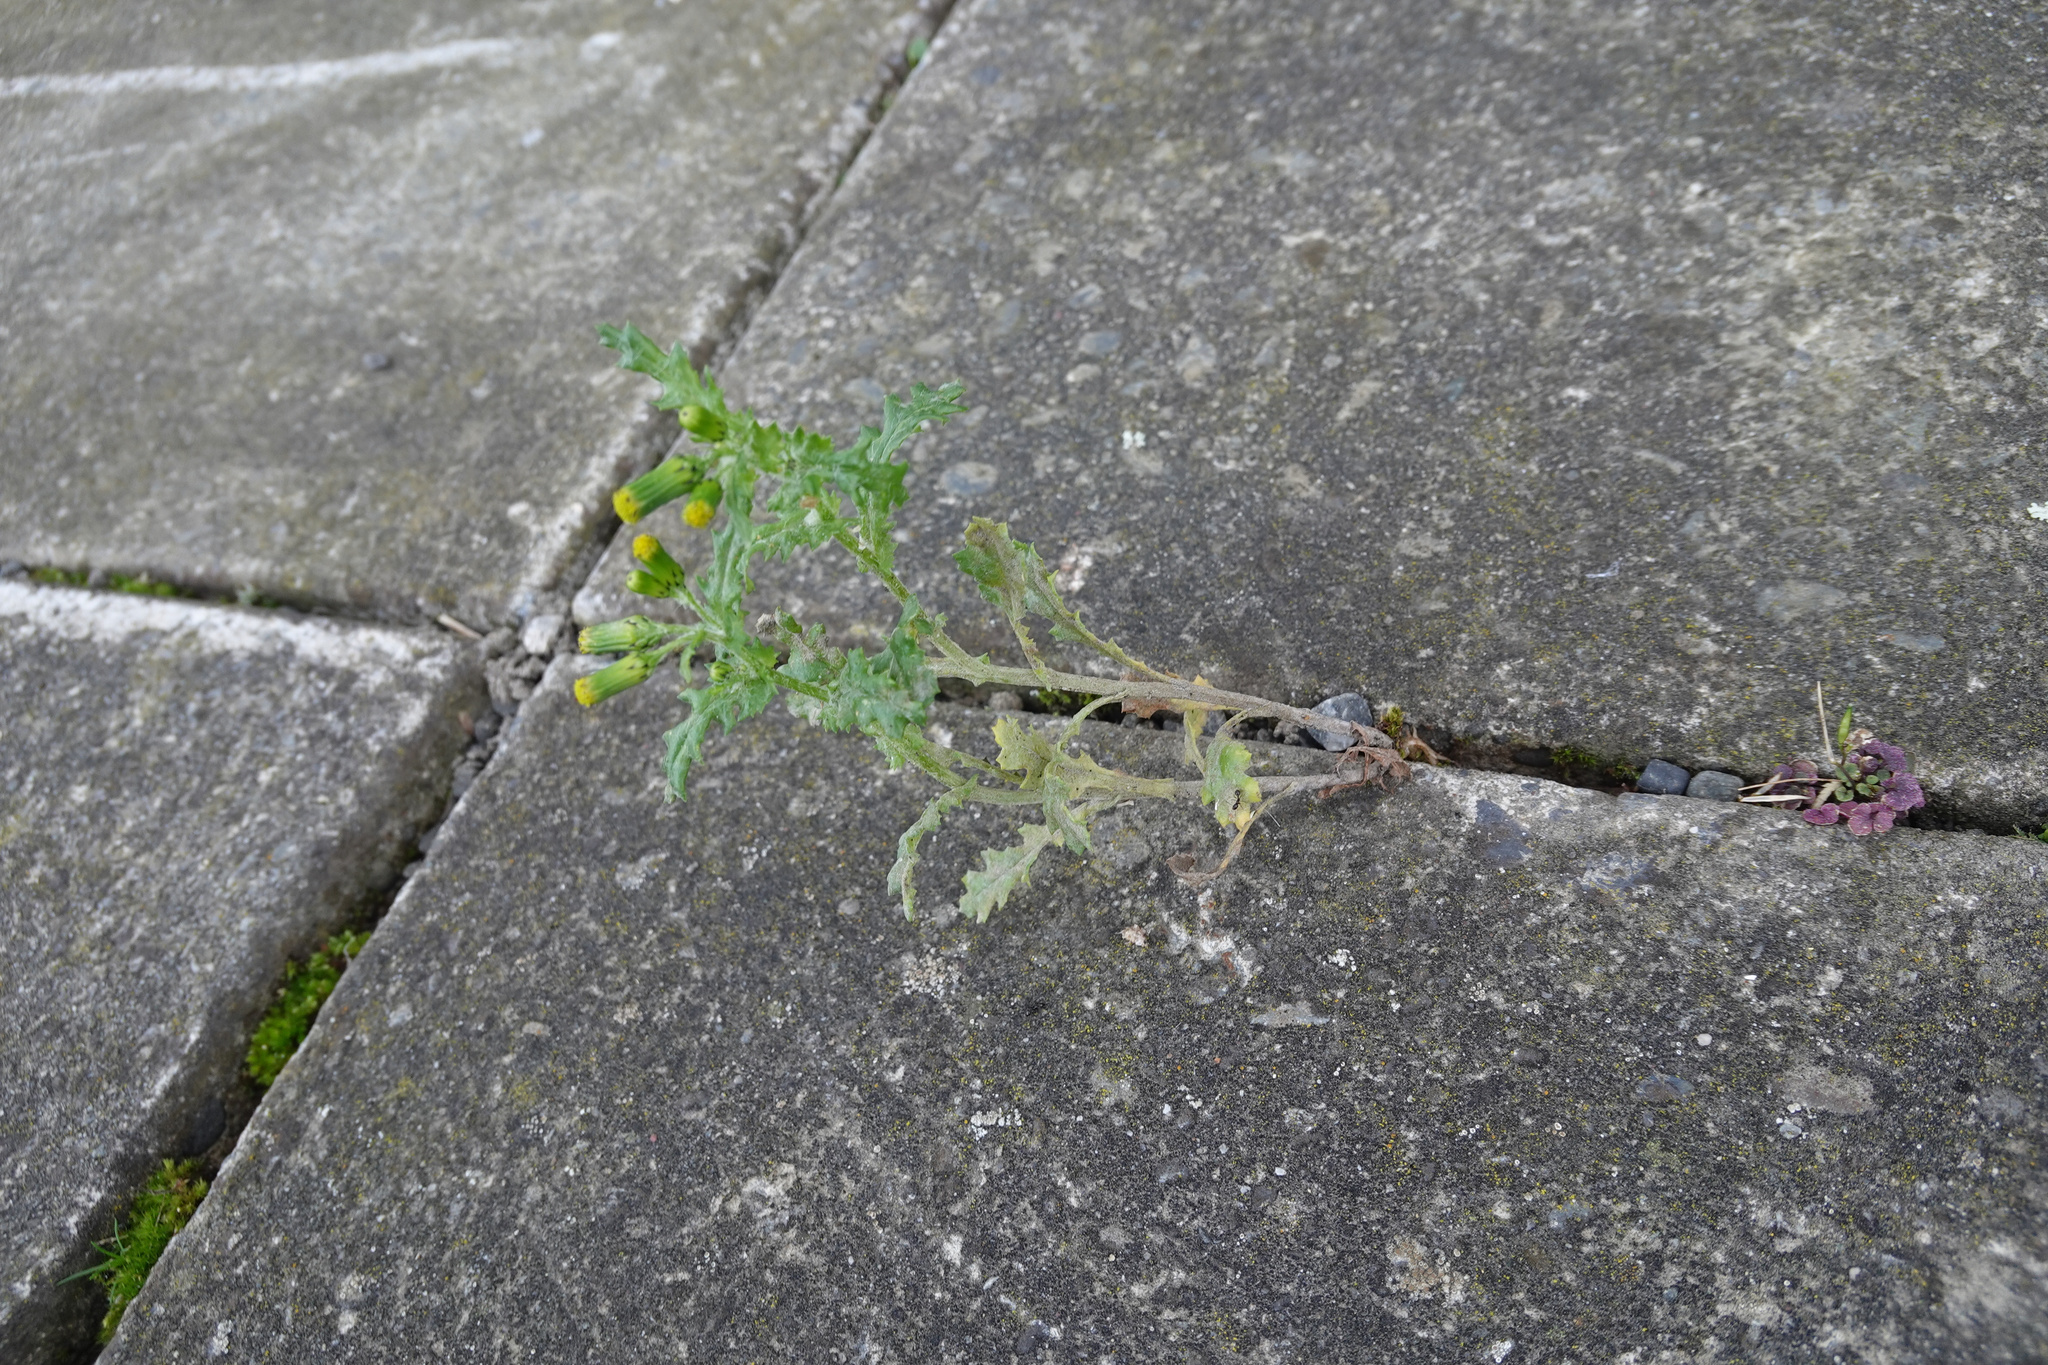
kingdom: Plantae
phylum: Tracheophyta
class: Magnoliopsida
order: Asterales
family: Asteraceae
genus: Senecio
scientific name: Senecio vulgaris
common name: Old-man-in-the-spring
